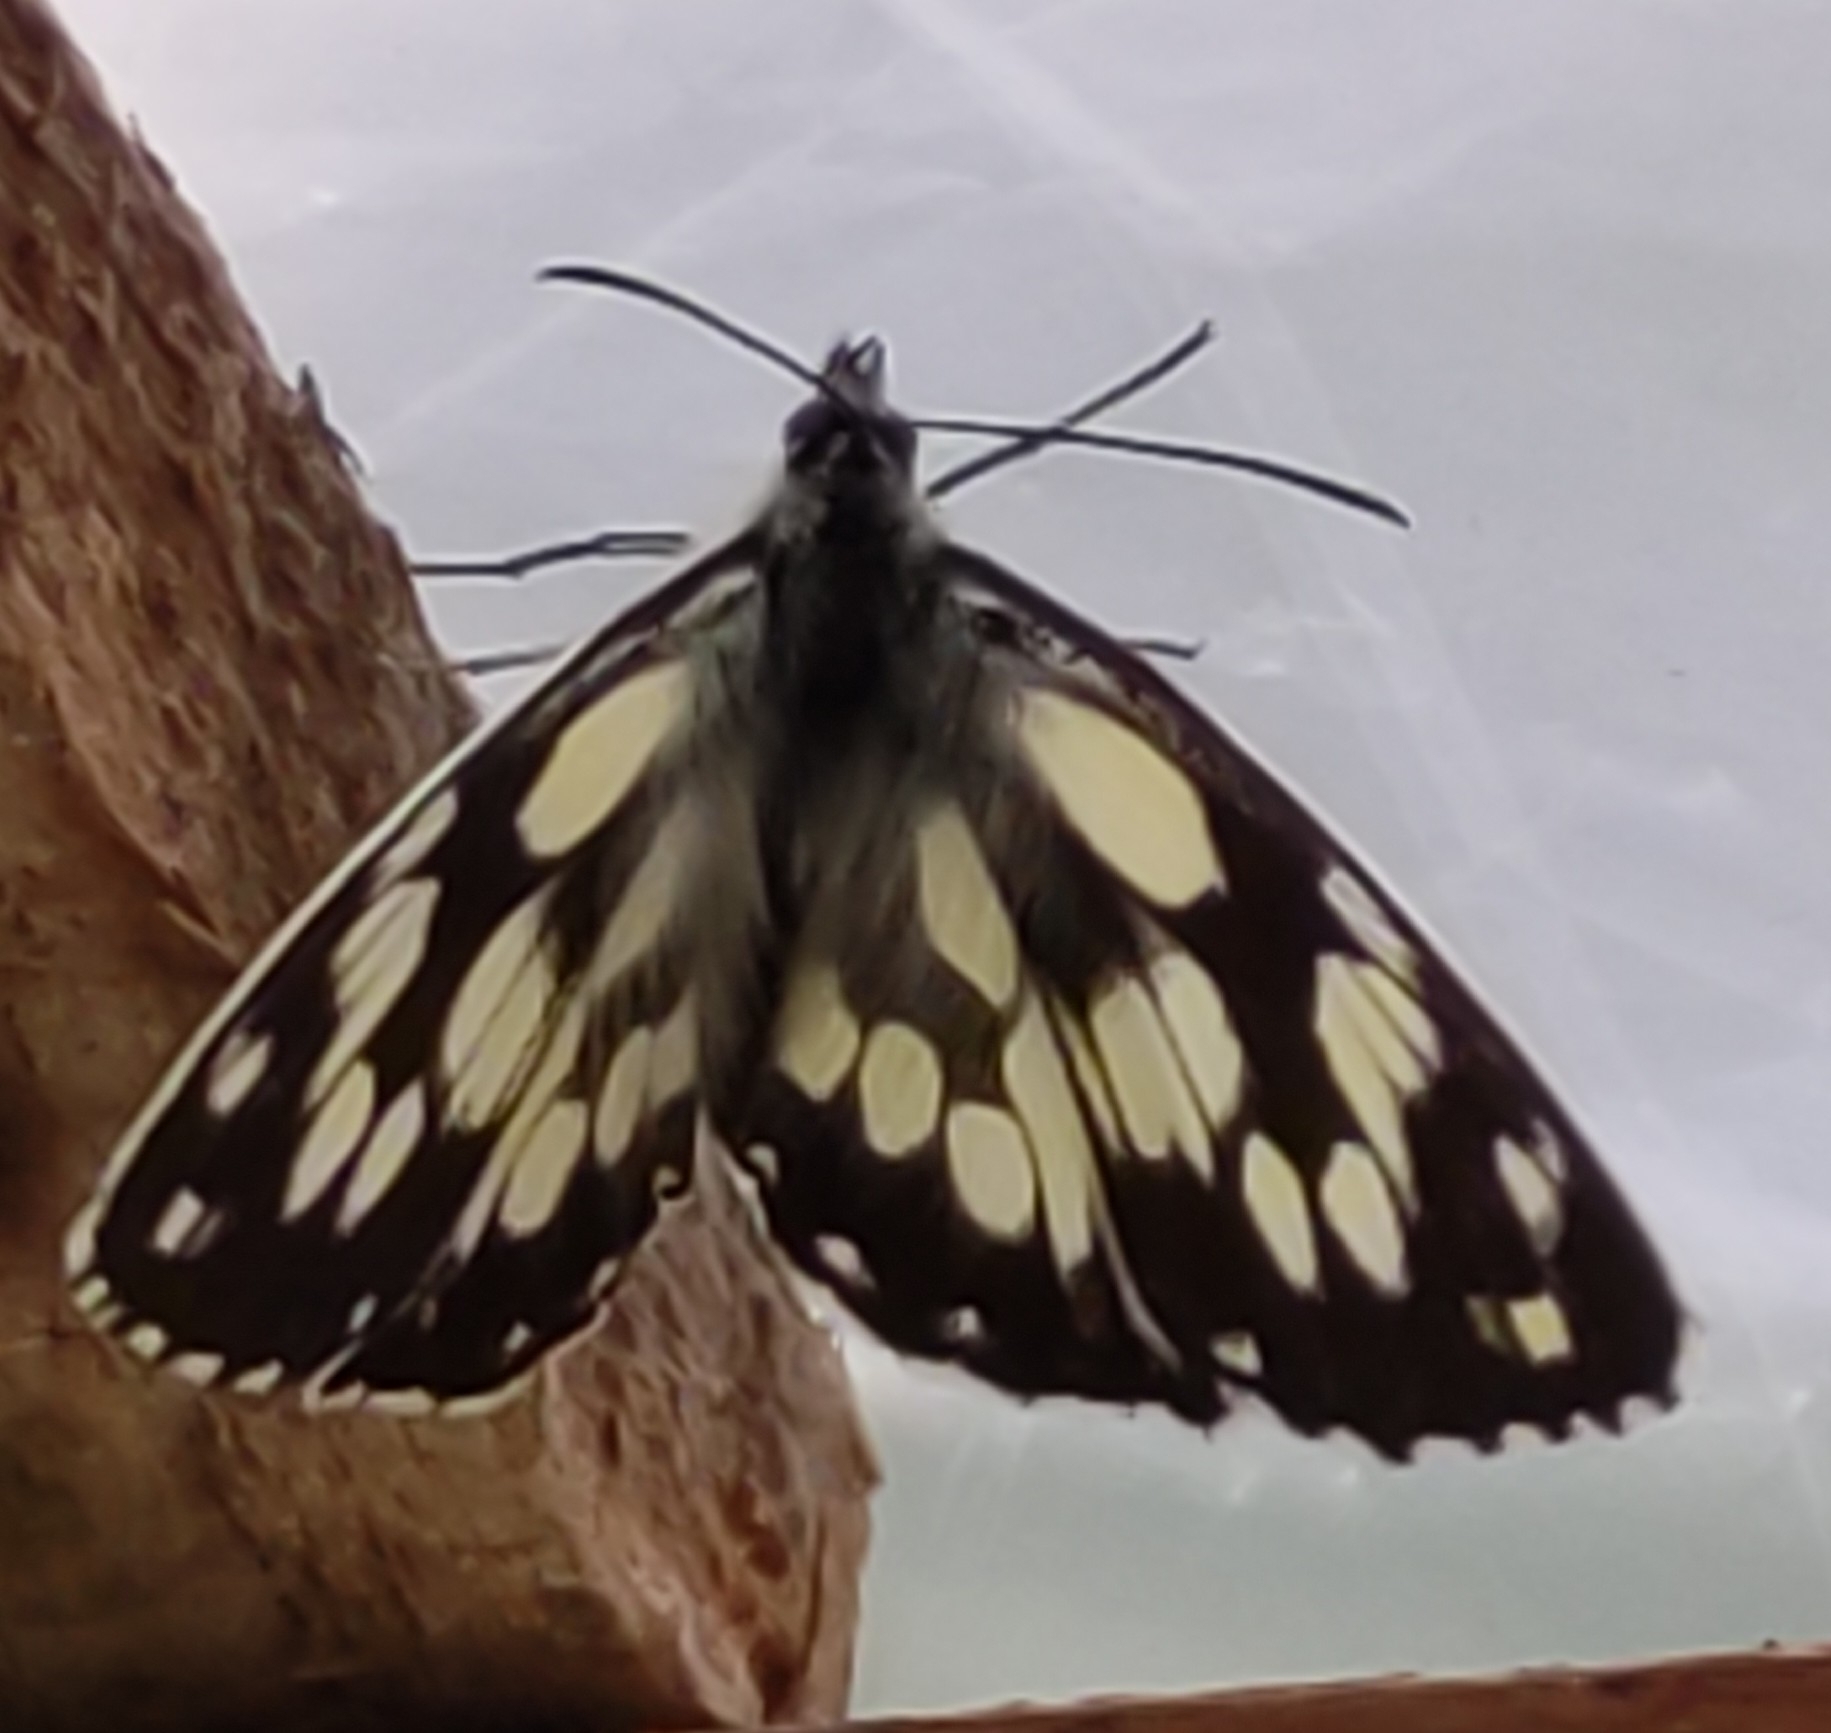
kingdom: Animalia
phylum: Arthropoda
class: Insecta
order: Lepidoptera
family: Nymphalidae
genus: Melanargia
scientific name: Melanargia galathea
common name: Marbled white
